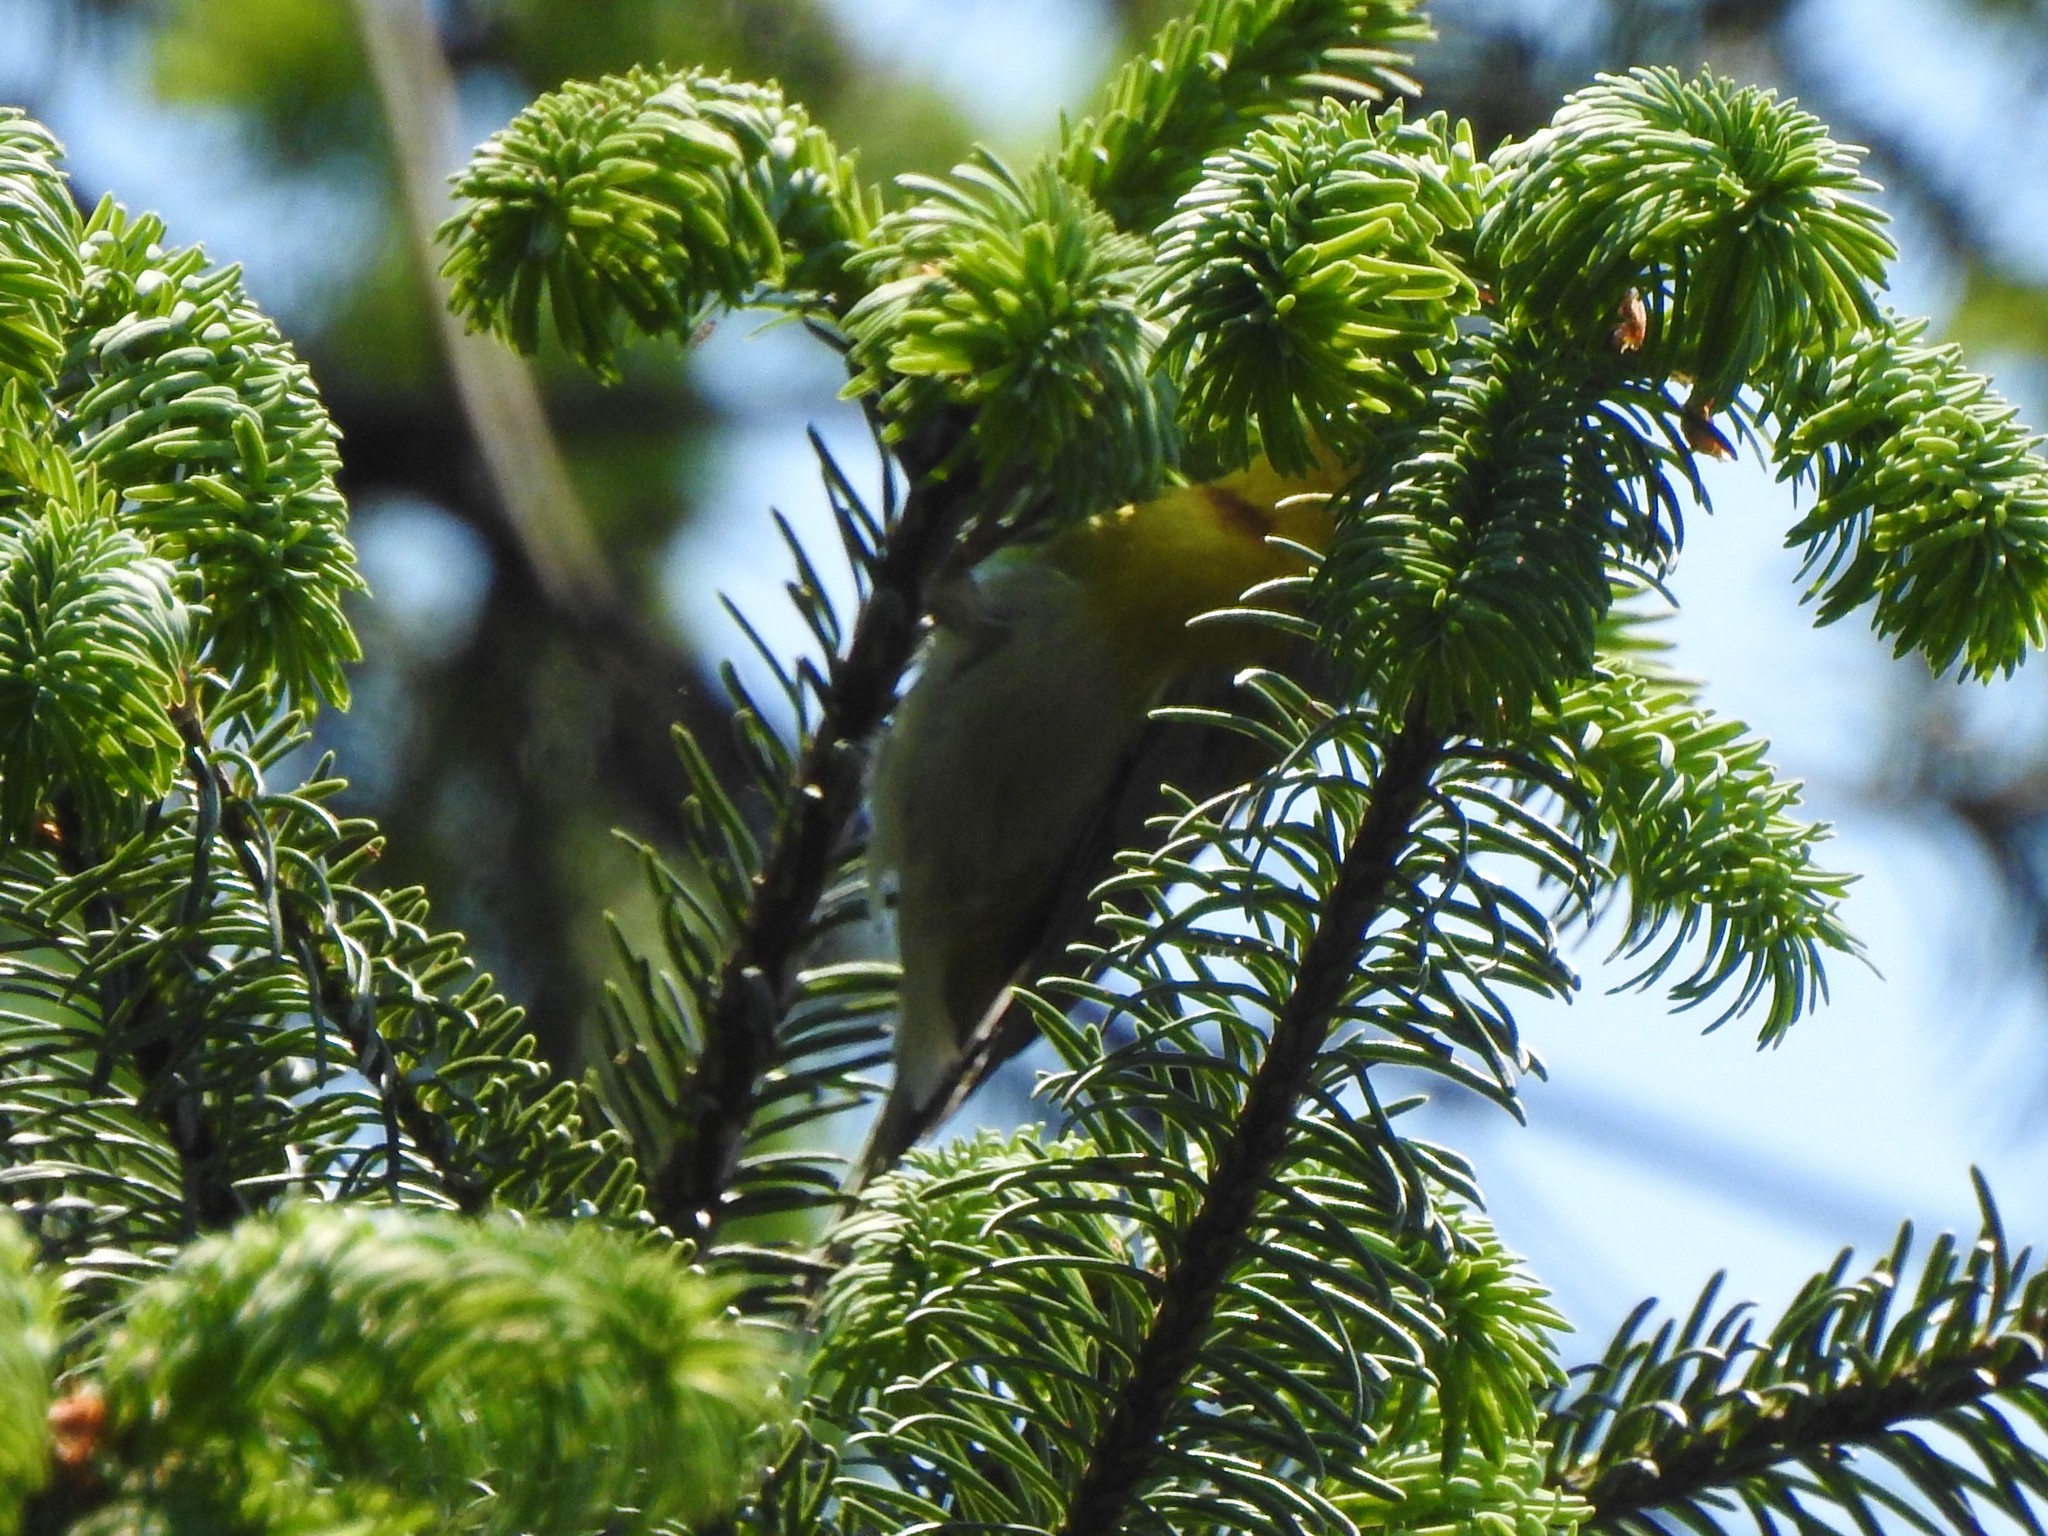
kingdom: Animalia
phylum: Chordata
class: Aves
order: Passeriformes
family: Parulidae
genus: Oreothlypis
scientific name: Oreothlypis superciliosa
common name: Crescent-chested warbler
